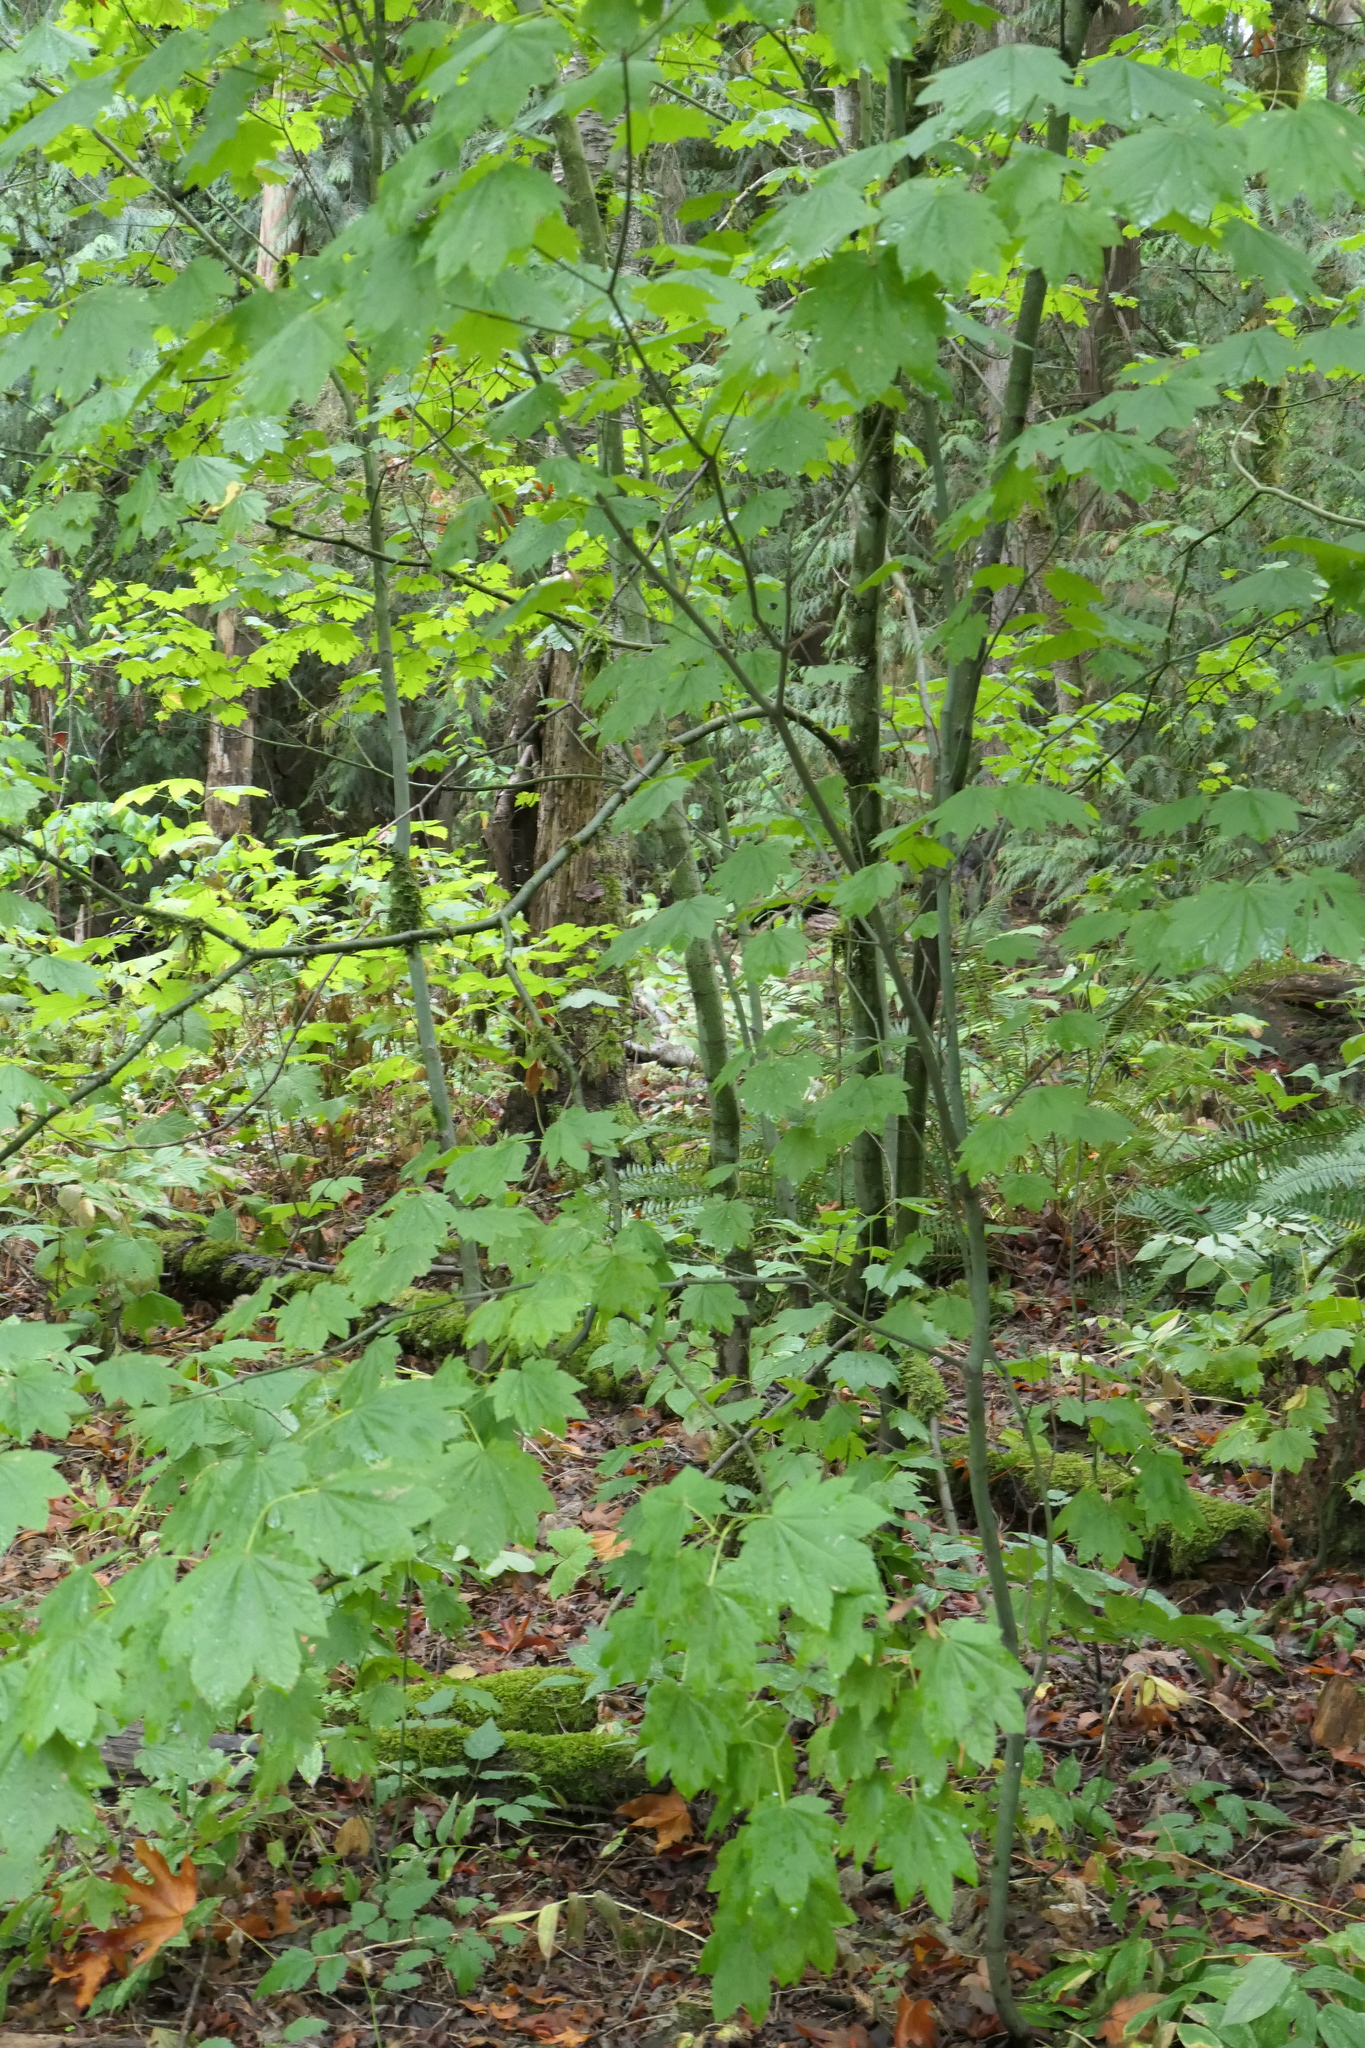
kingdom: Plantae
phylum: Tracheophyta
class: Magnoliopsida
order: Sapindales
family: Sapindaceae
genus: Acer
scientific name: Acer circinatum
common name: Vine maple
